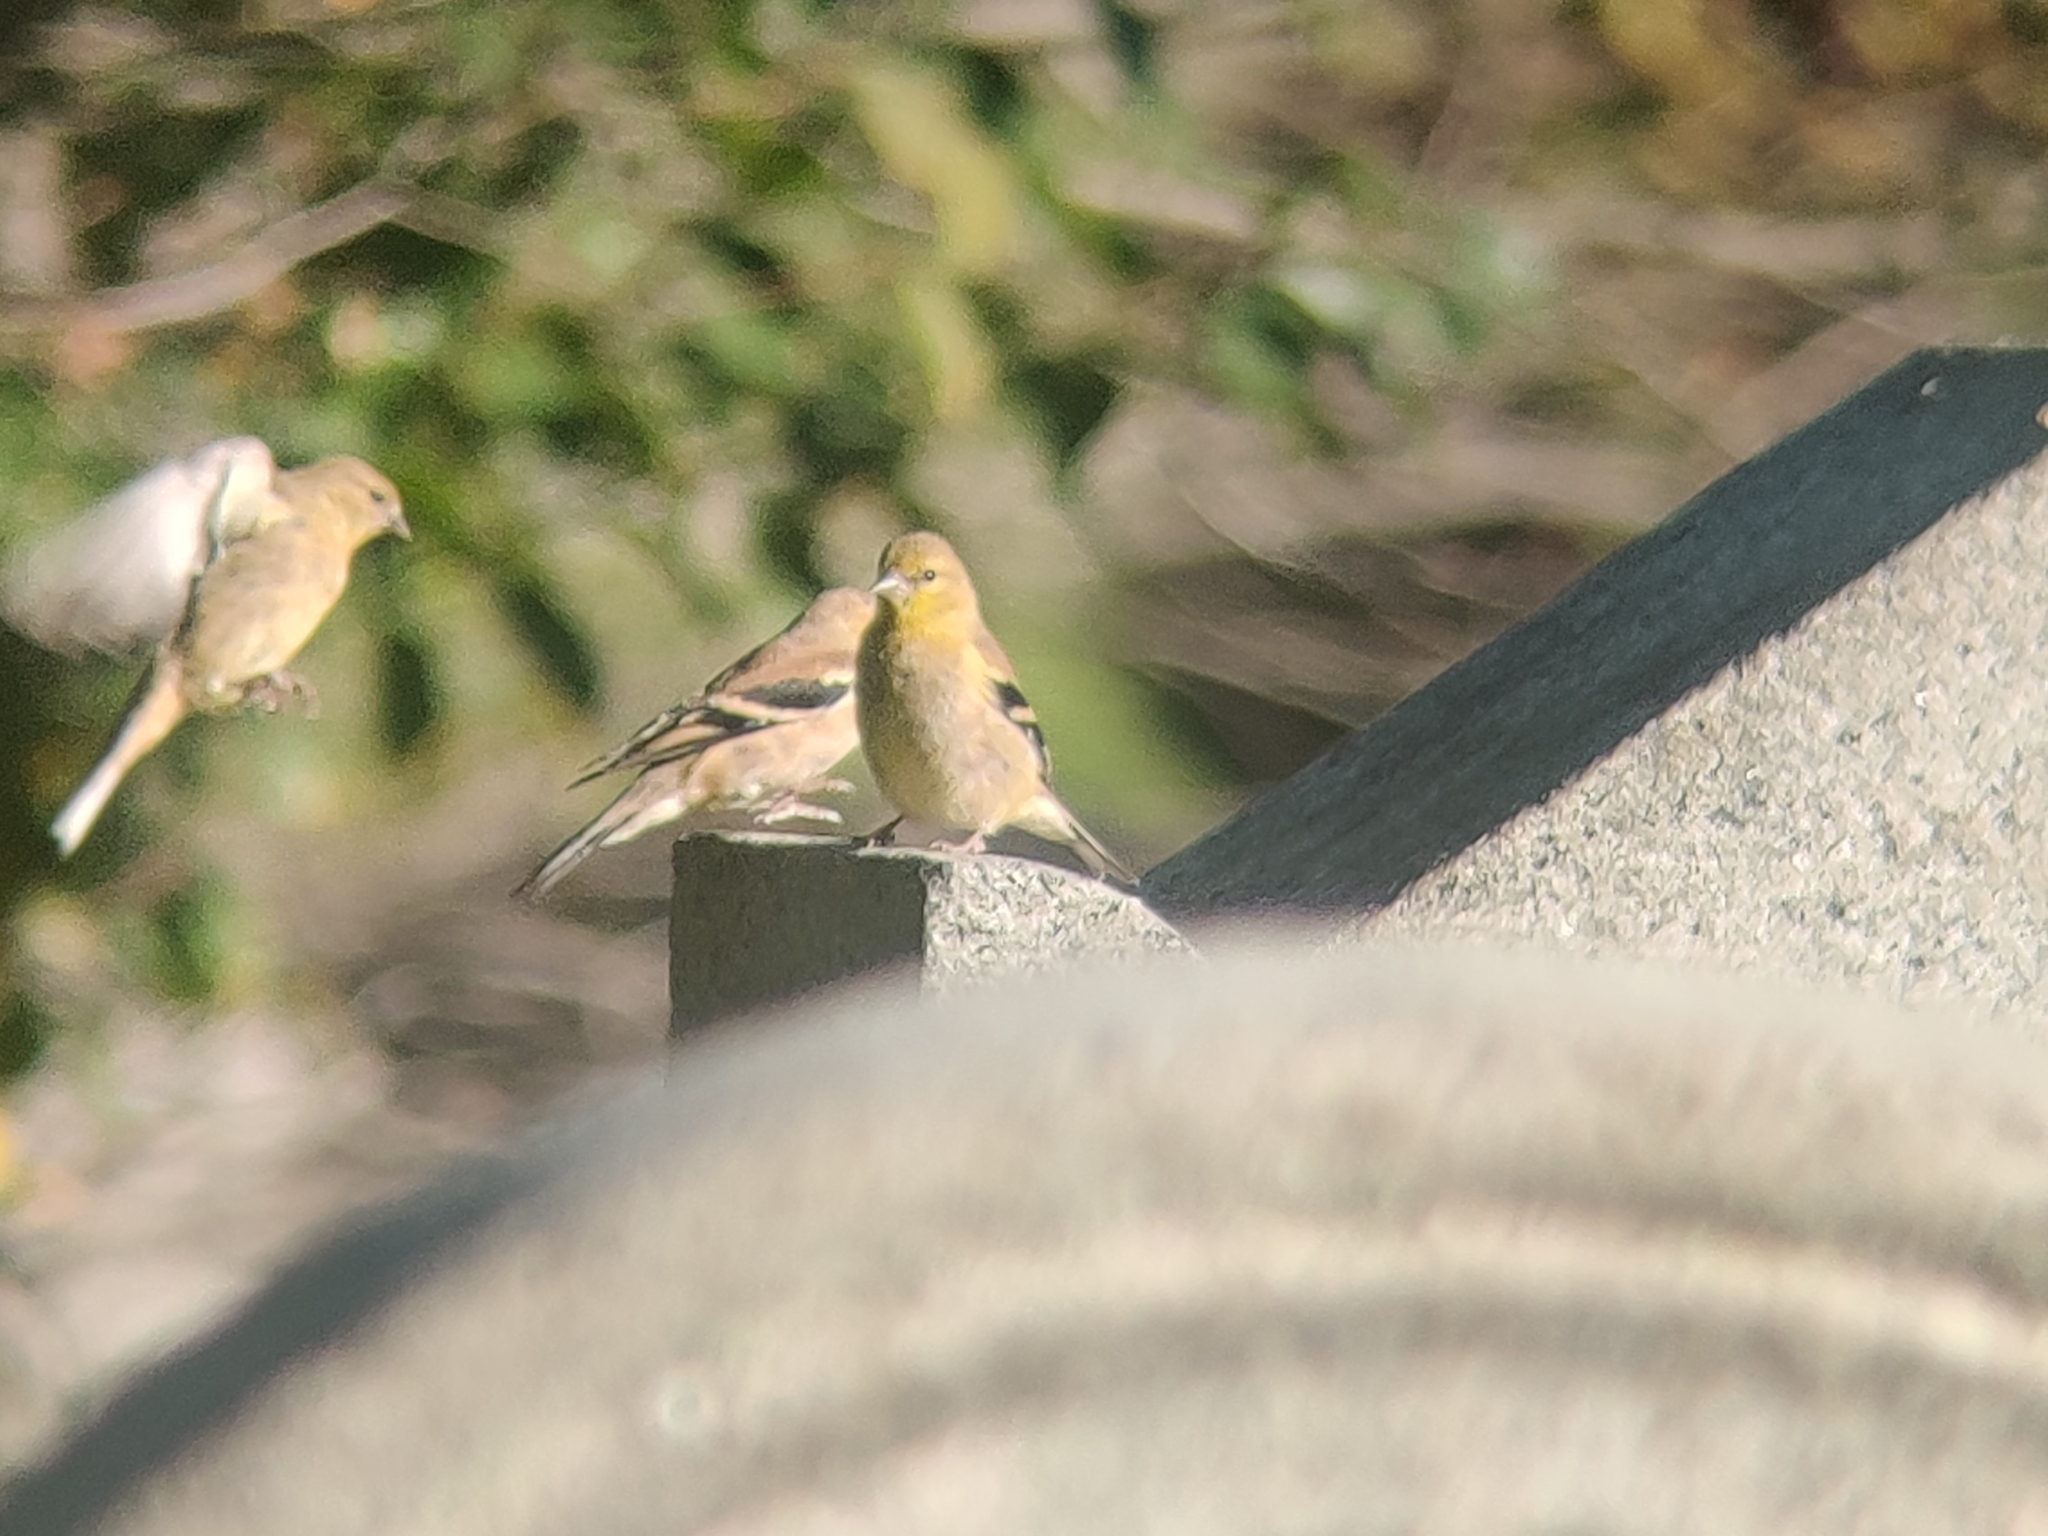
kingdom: Animalia
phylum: Chordata
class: Aves
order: Passeriformes
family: Fringillidae
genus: Spinus
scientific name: Spinus tristis
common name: American goldfinch
